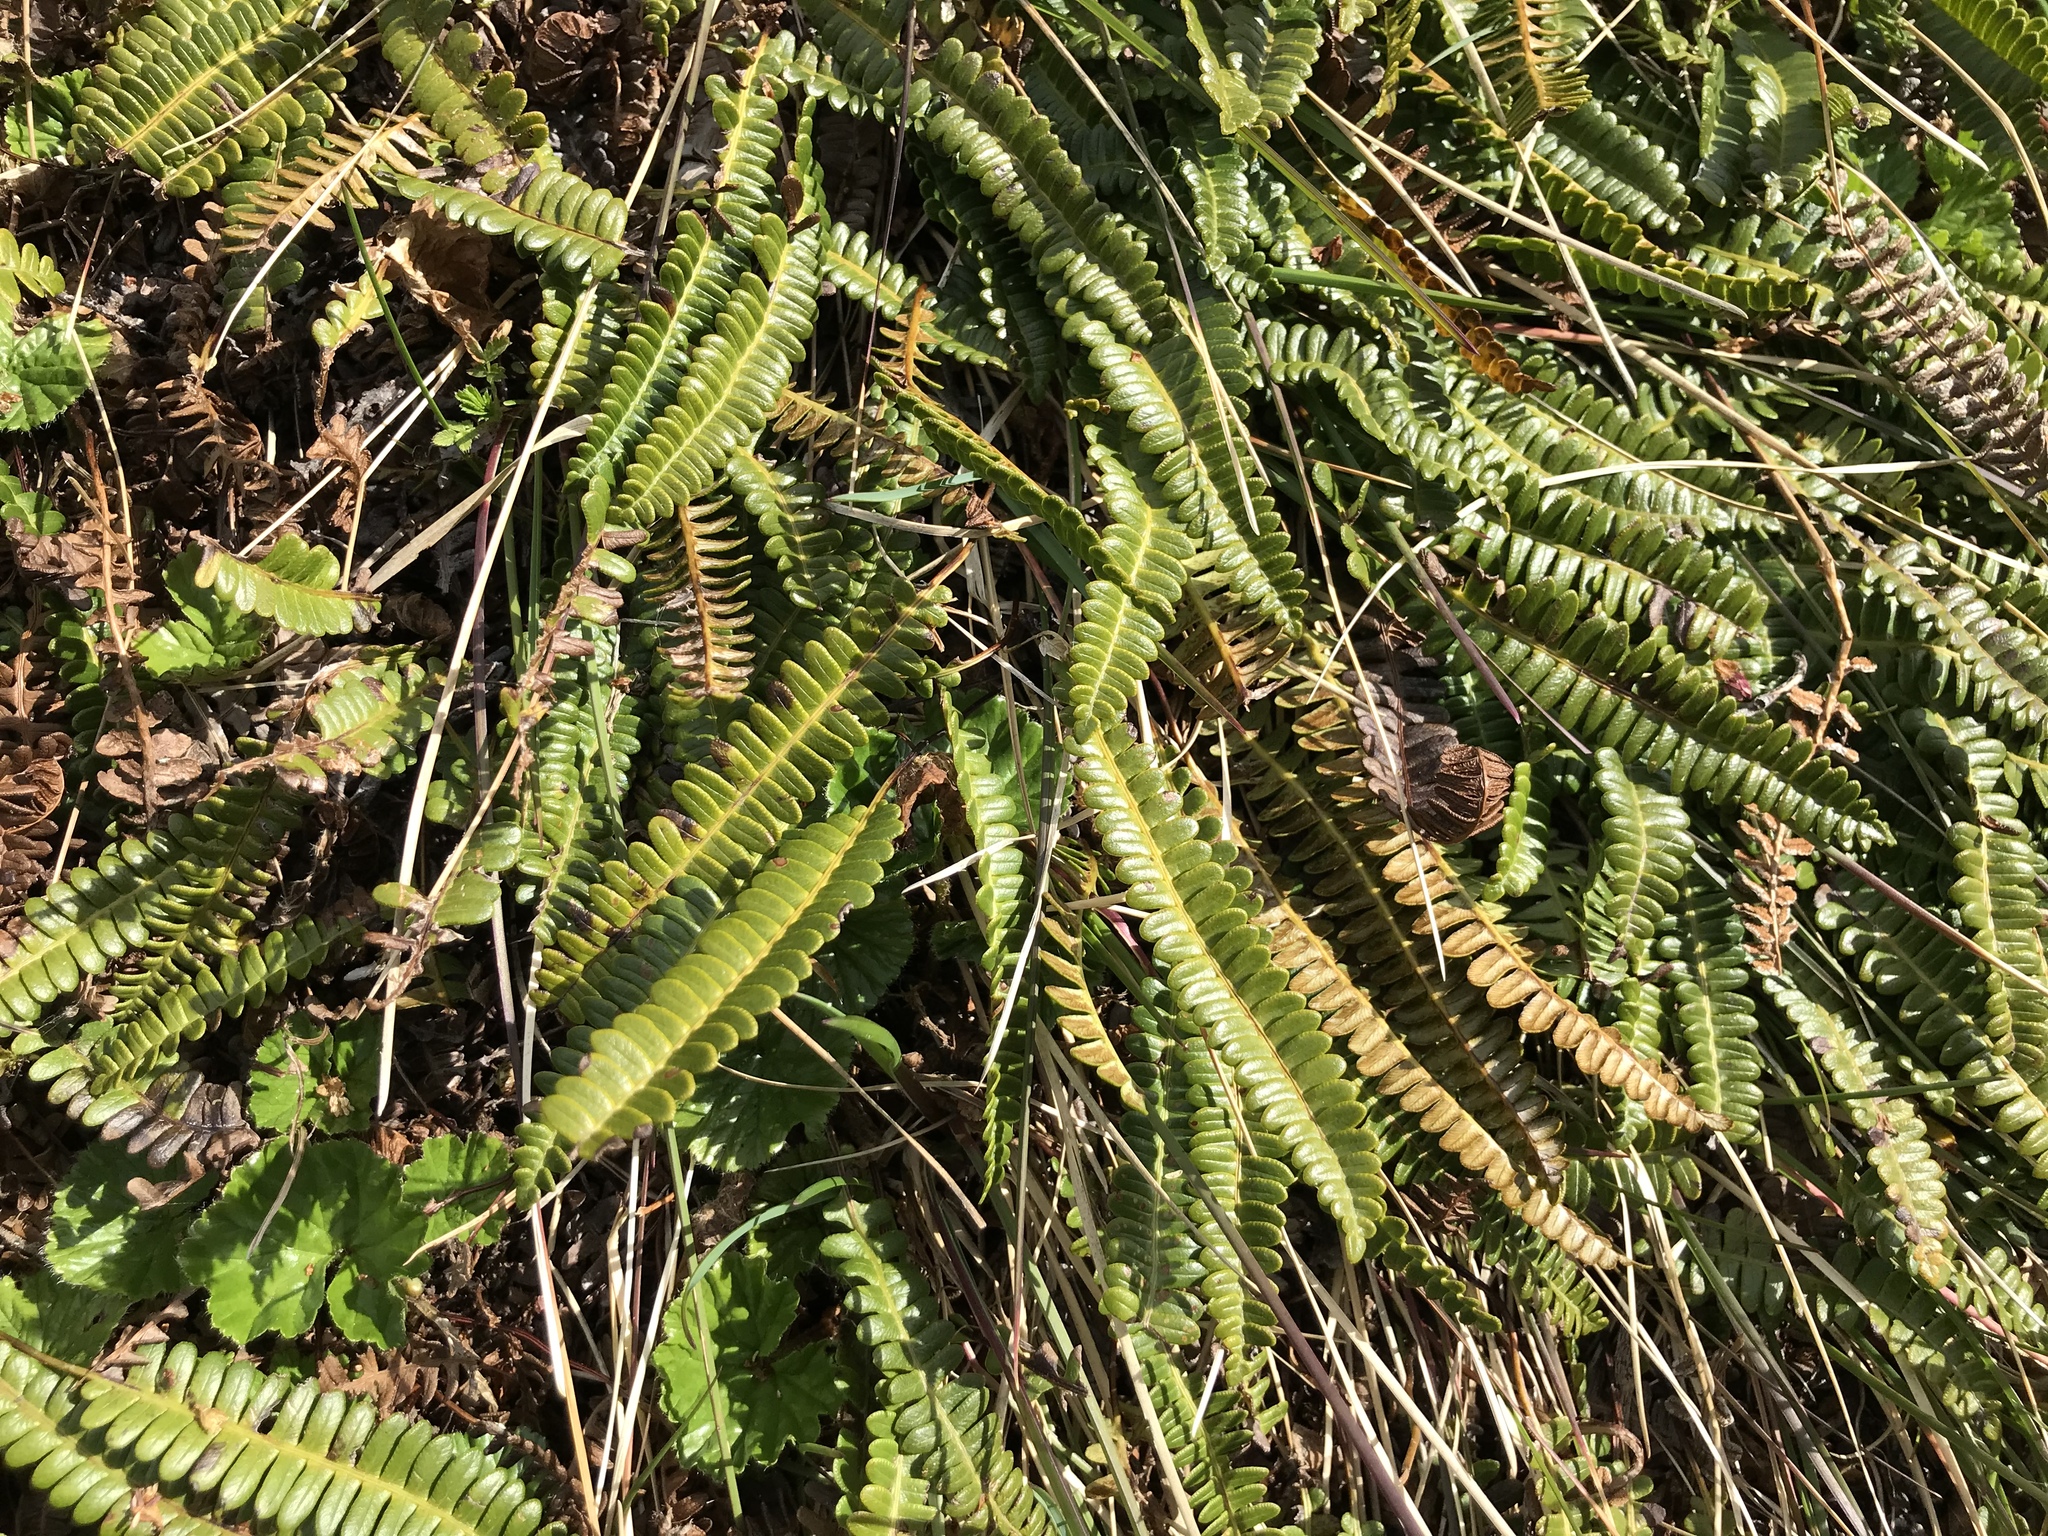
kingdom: Plantae
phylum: Tracheophyta
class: Polypodiopsida
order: Polypodiales
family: Blechnaceae
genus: Austroblechnum
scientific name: Austroblechnum penna-marina
